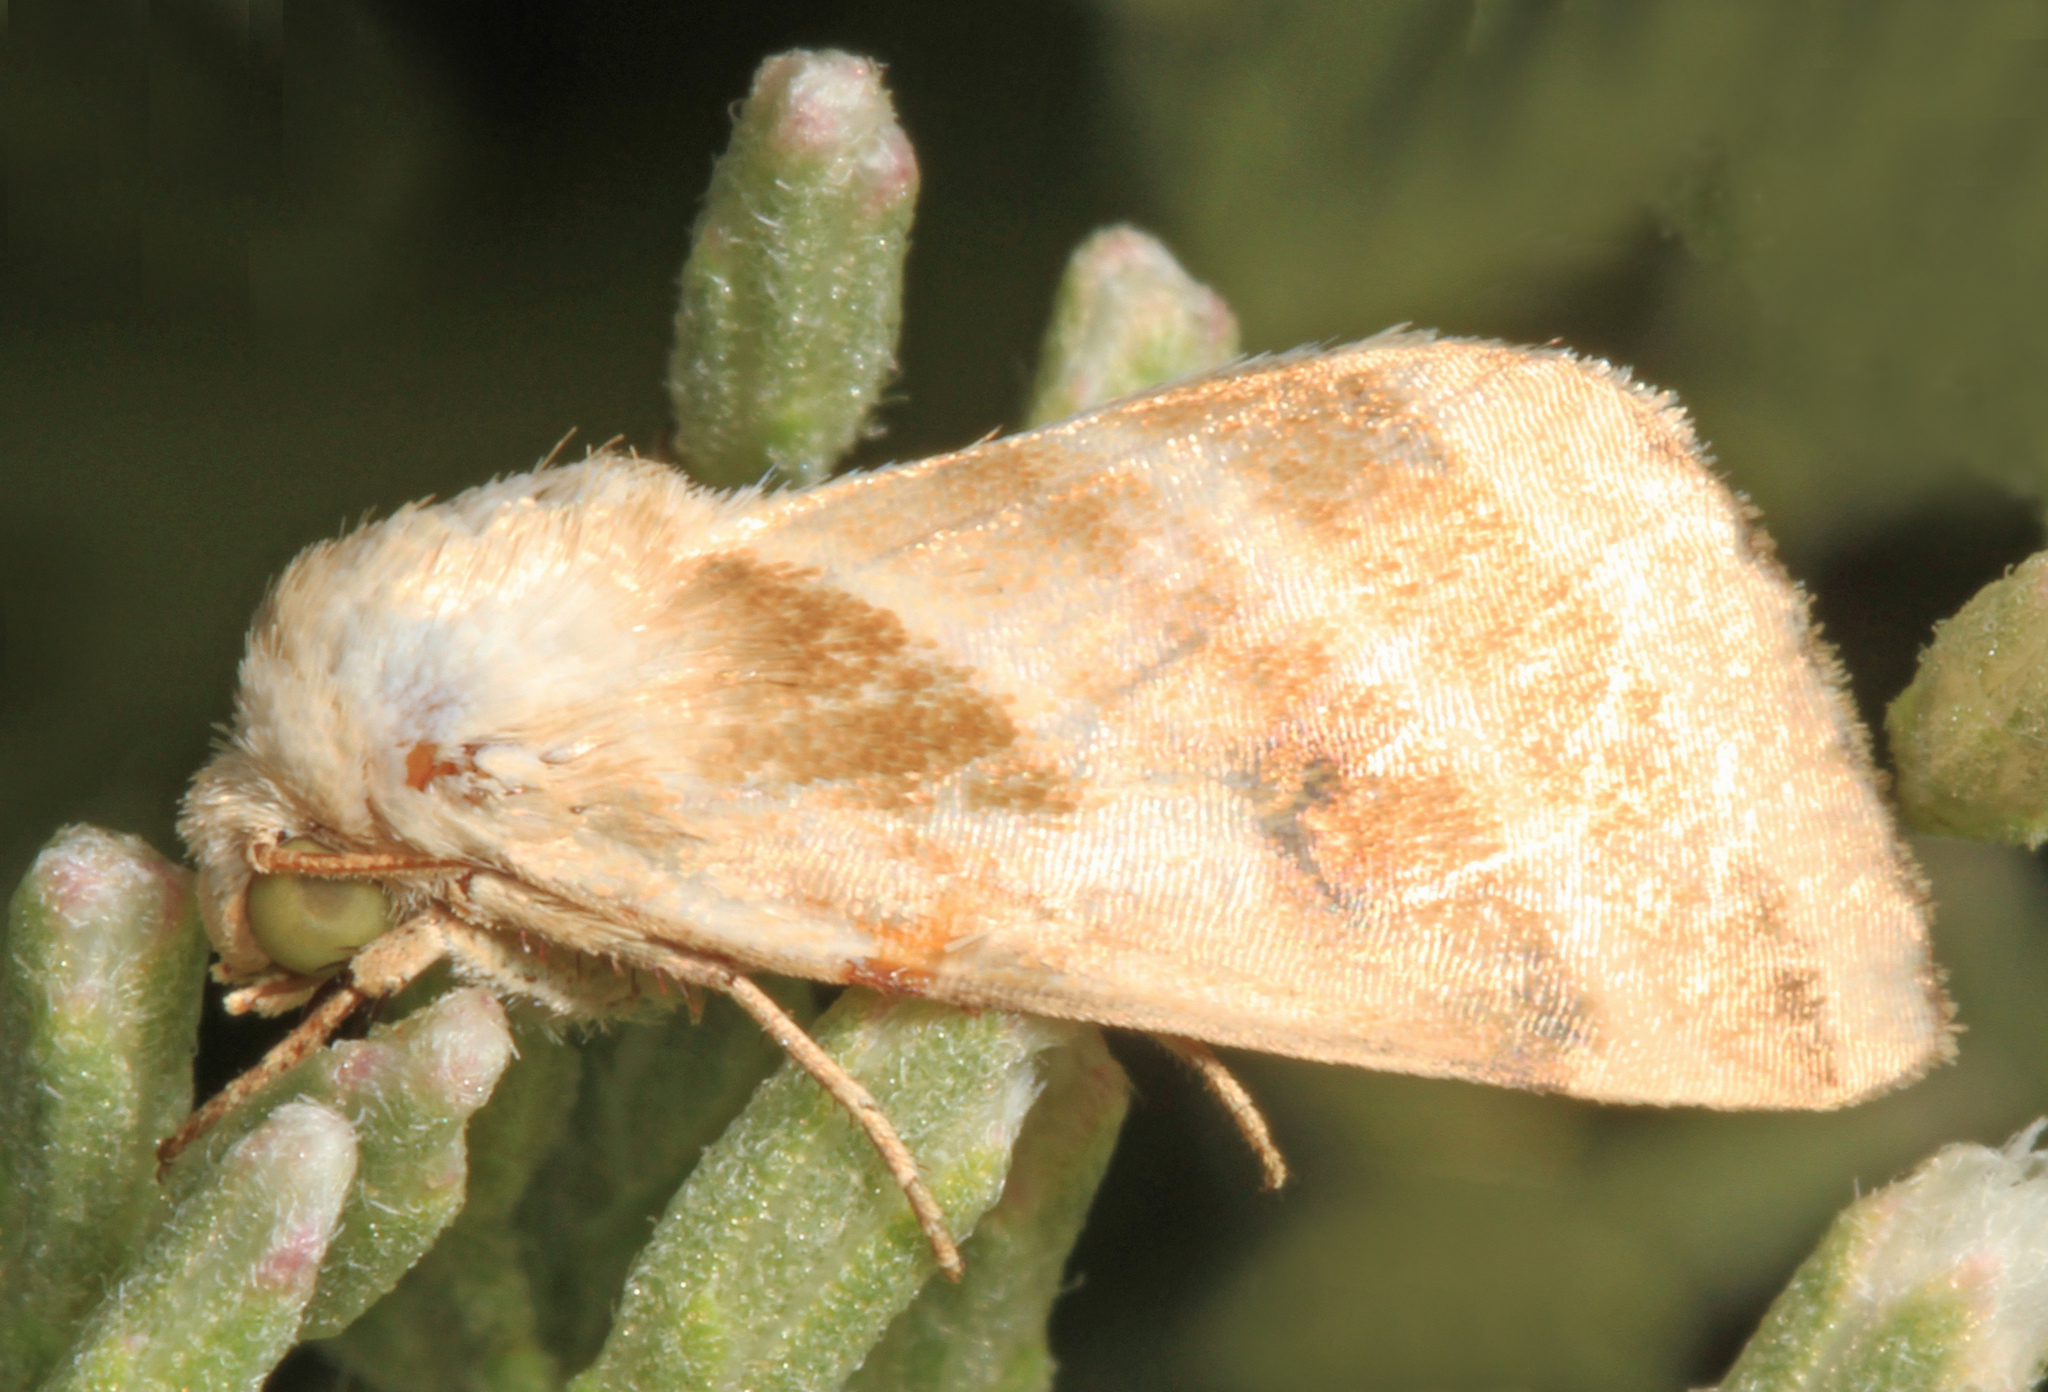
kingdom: Animalia
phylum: Arthropoda
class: Insecta
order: Lepidoptera
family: Noctuidae
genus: Schinia
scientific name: Schinia trifascia
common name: Three-lined flower moth
